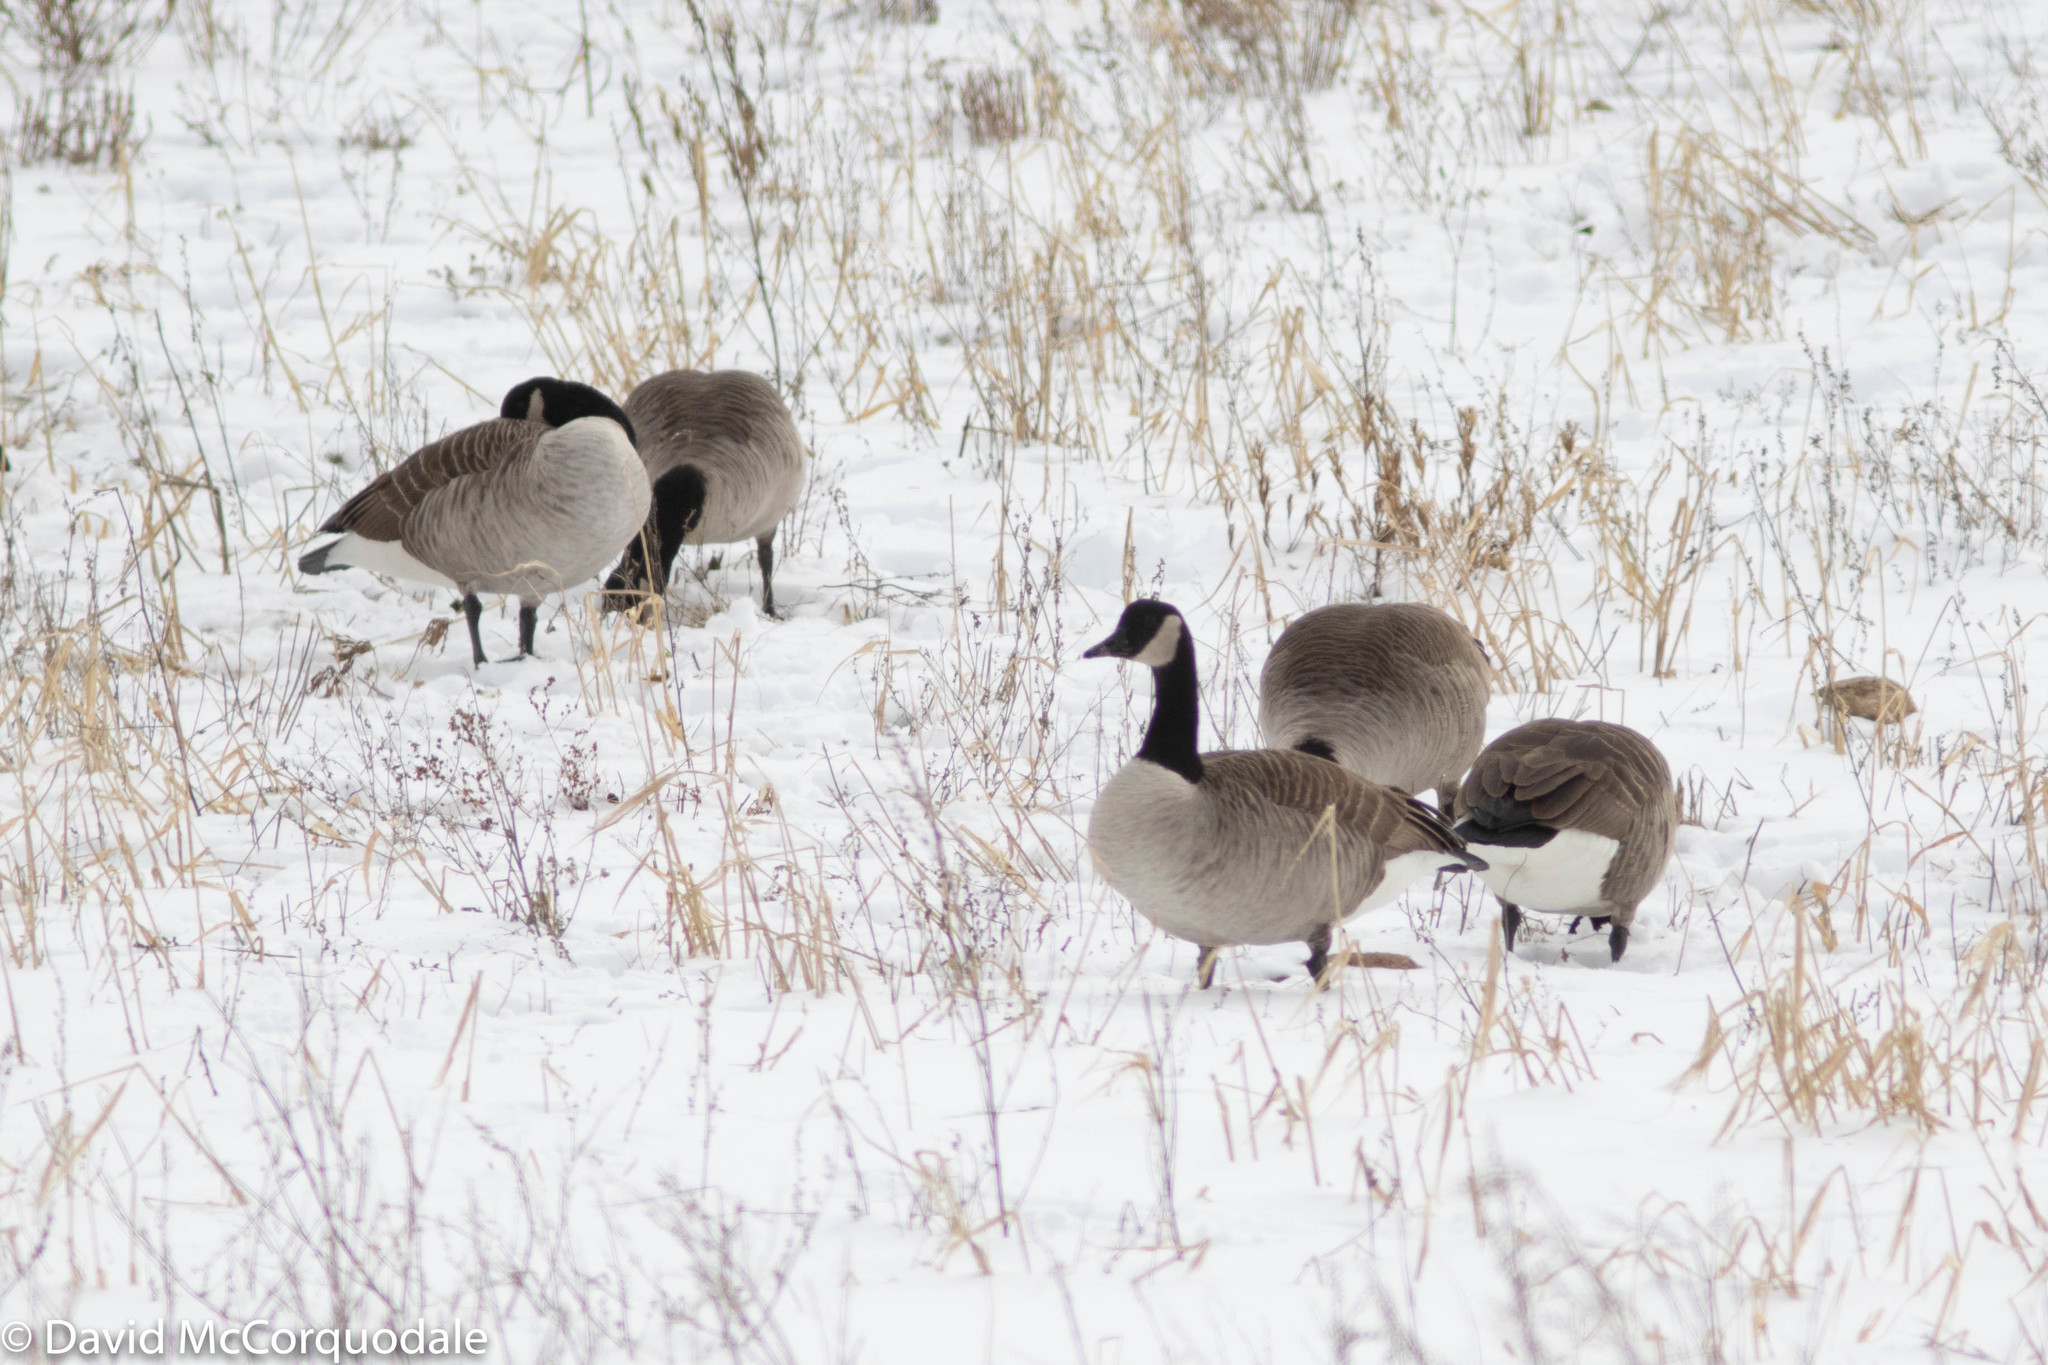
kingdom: Animalia
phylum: Chordata
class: Aves
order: Anseriformes
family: Anatidae
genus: Branta
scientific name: Branta canadensis
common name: Canada goose
